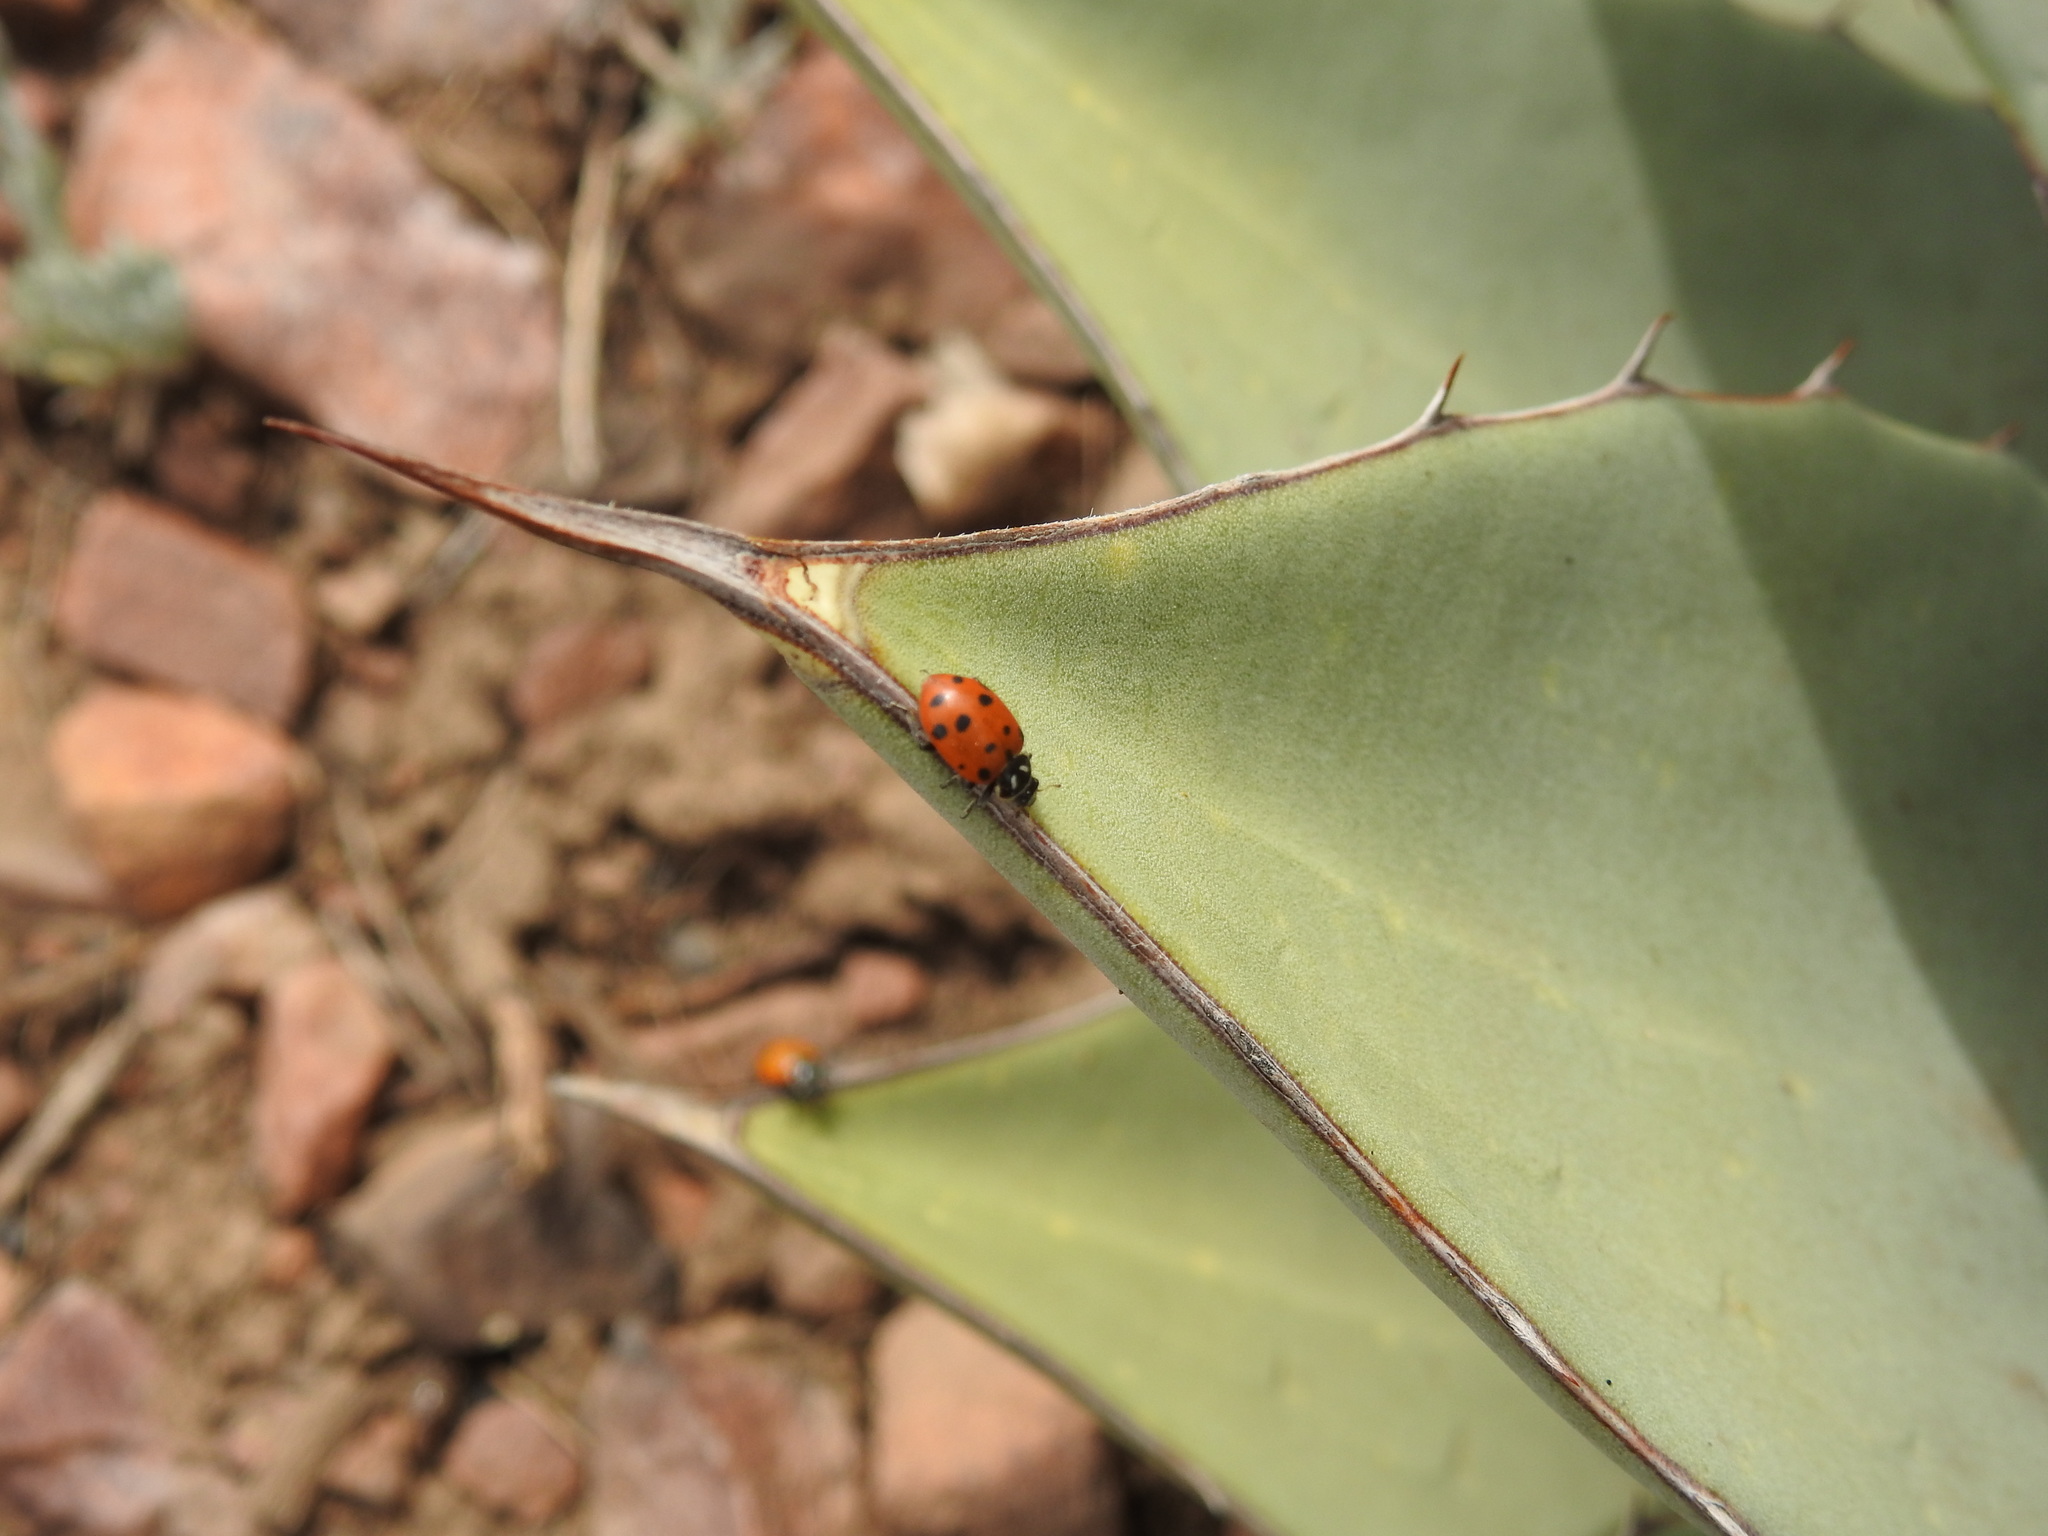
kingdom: Animalia
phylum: Arthropoda
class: Insecta
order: Coleoptera
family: Coccinellidae
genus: Hippodamia
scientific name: Hippodamia convergens
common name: Convergent lady beetle
